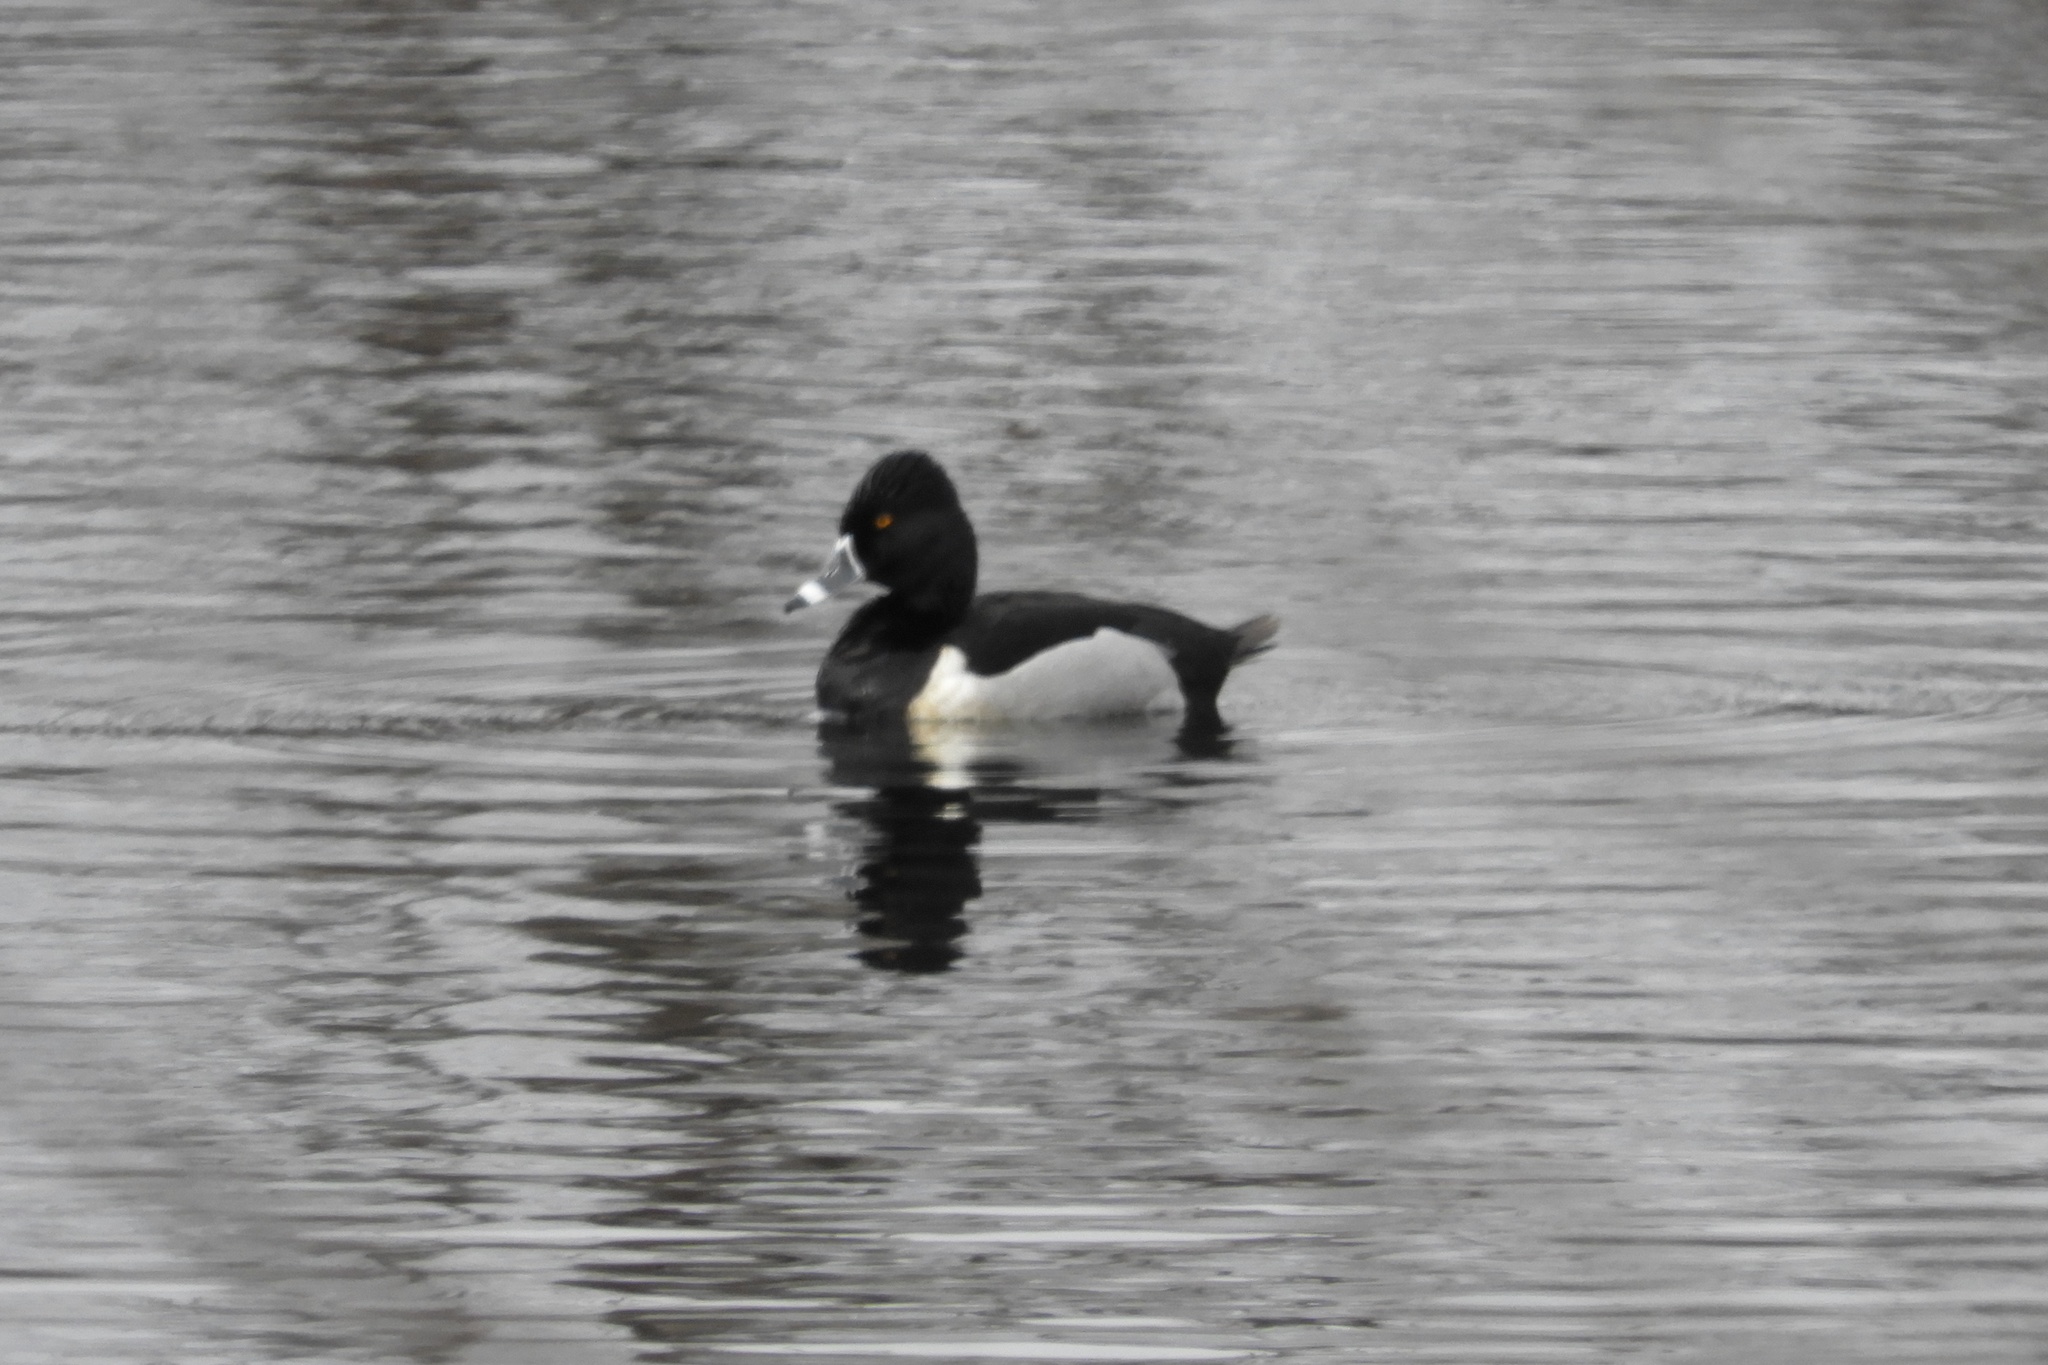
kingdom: Animalia
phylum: Chordata
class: Aves
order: Anseriformes
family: Anatidae
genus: Aythya
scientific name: Aythya collaris
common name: Ring-necked duck
